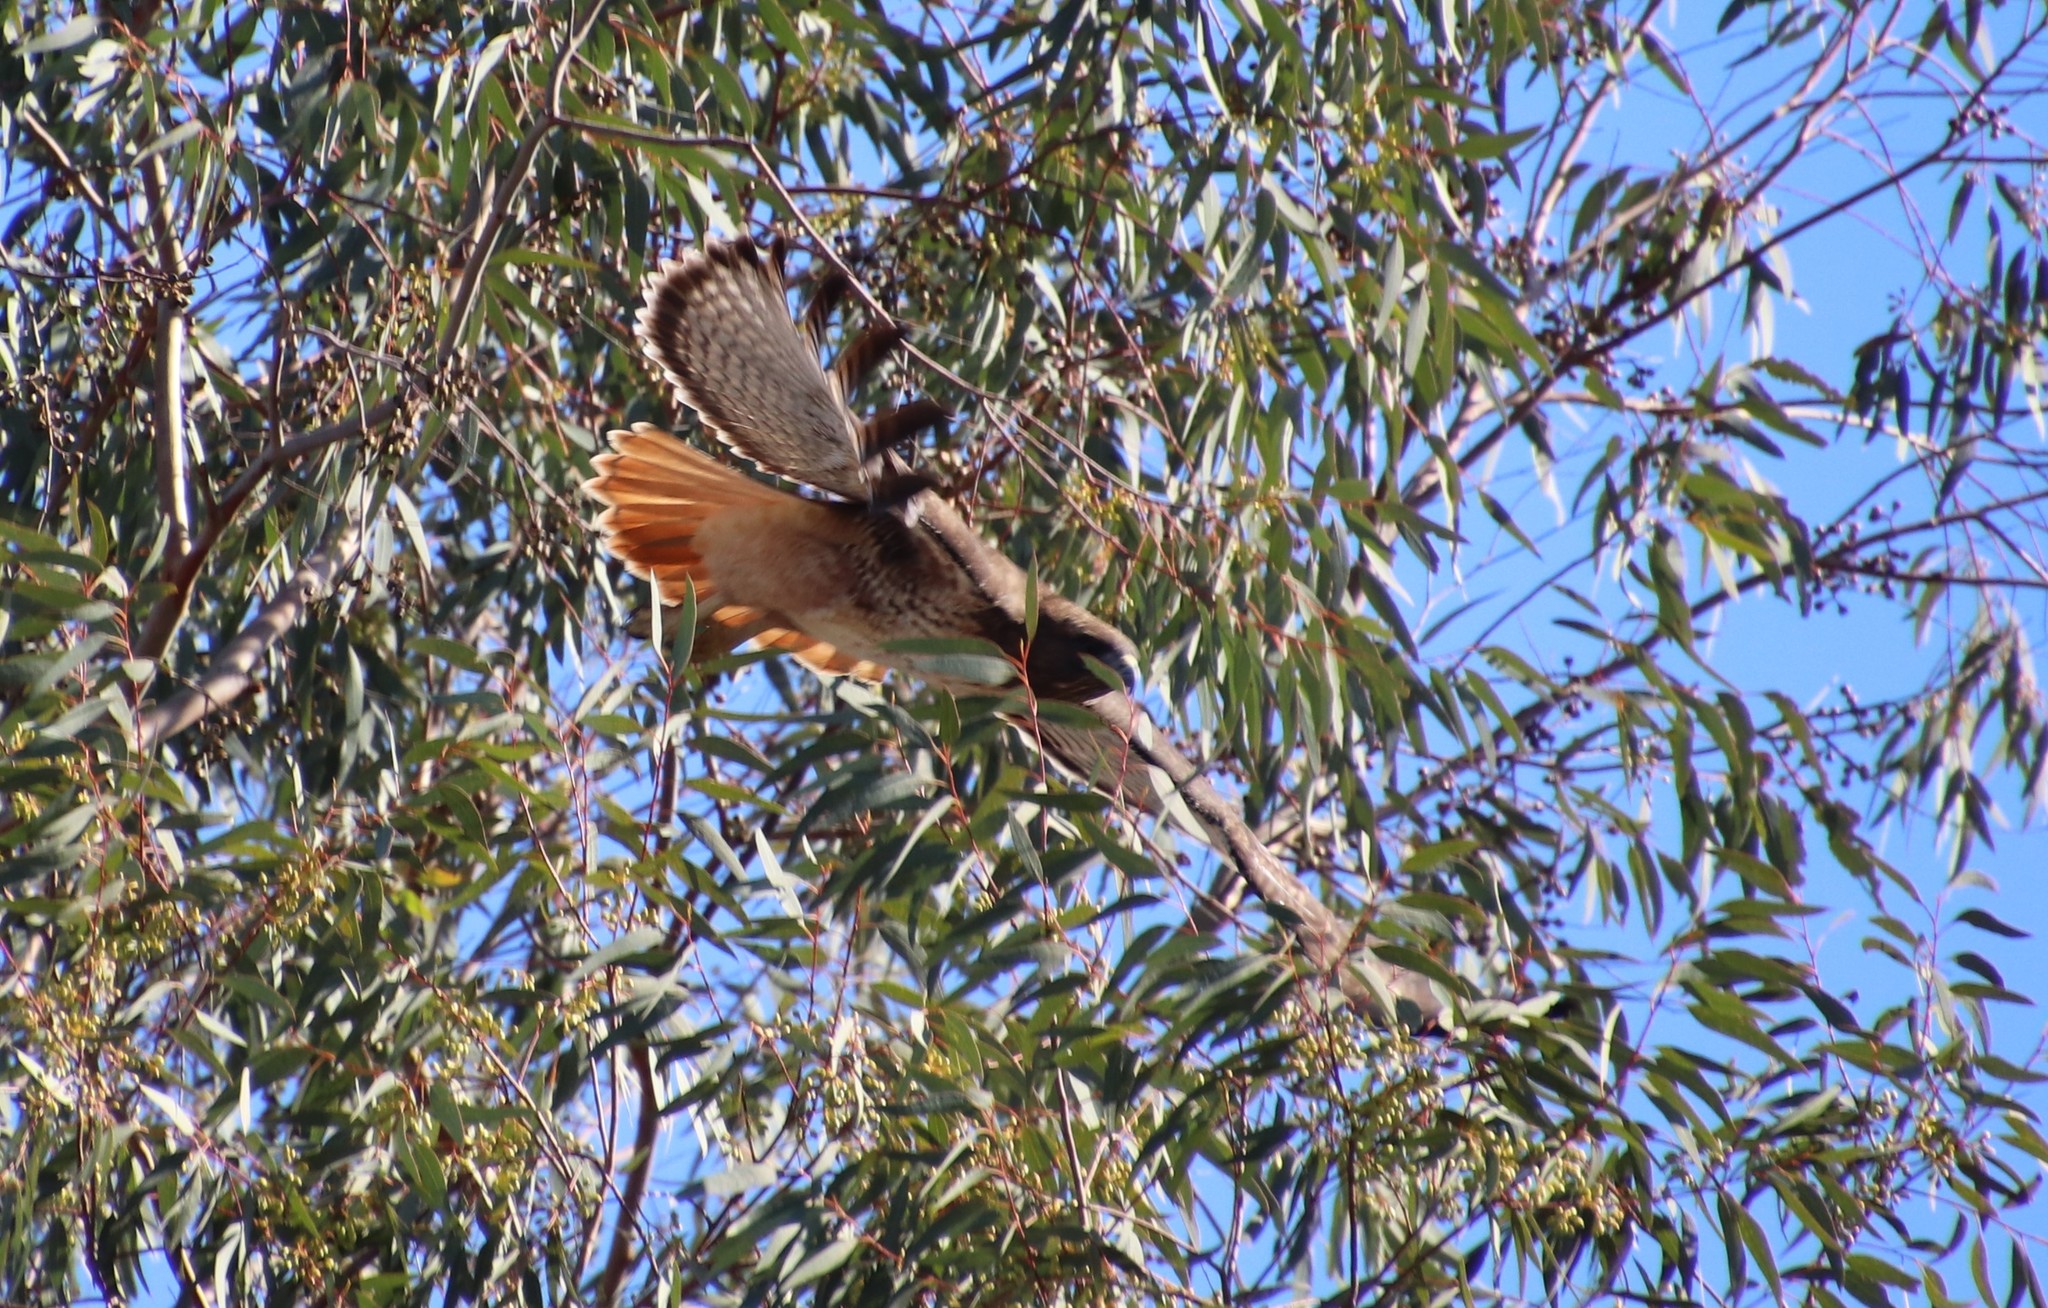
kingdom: Animalia
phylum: Chordata
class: Aves
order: Accipitriformes
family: Accipitridae
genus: Buteo
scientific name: Buteo jamaicensis
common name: Red-tailed hawk
